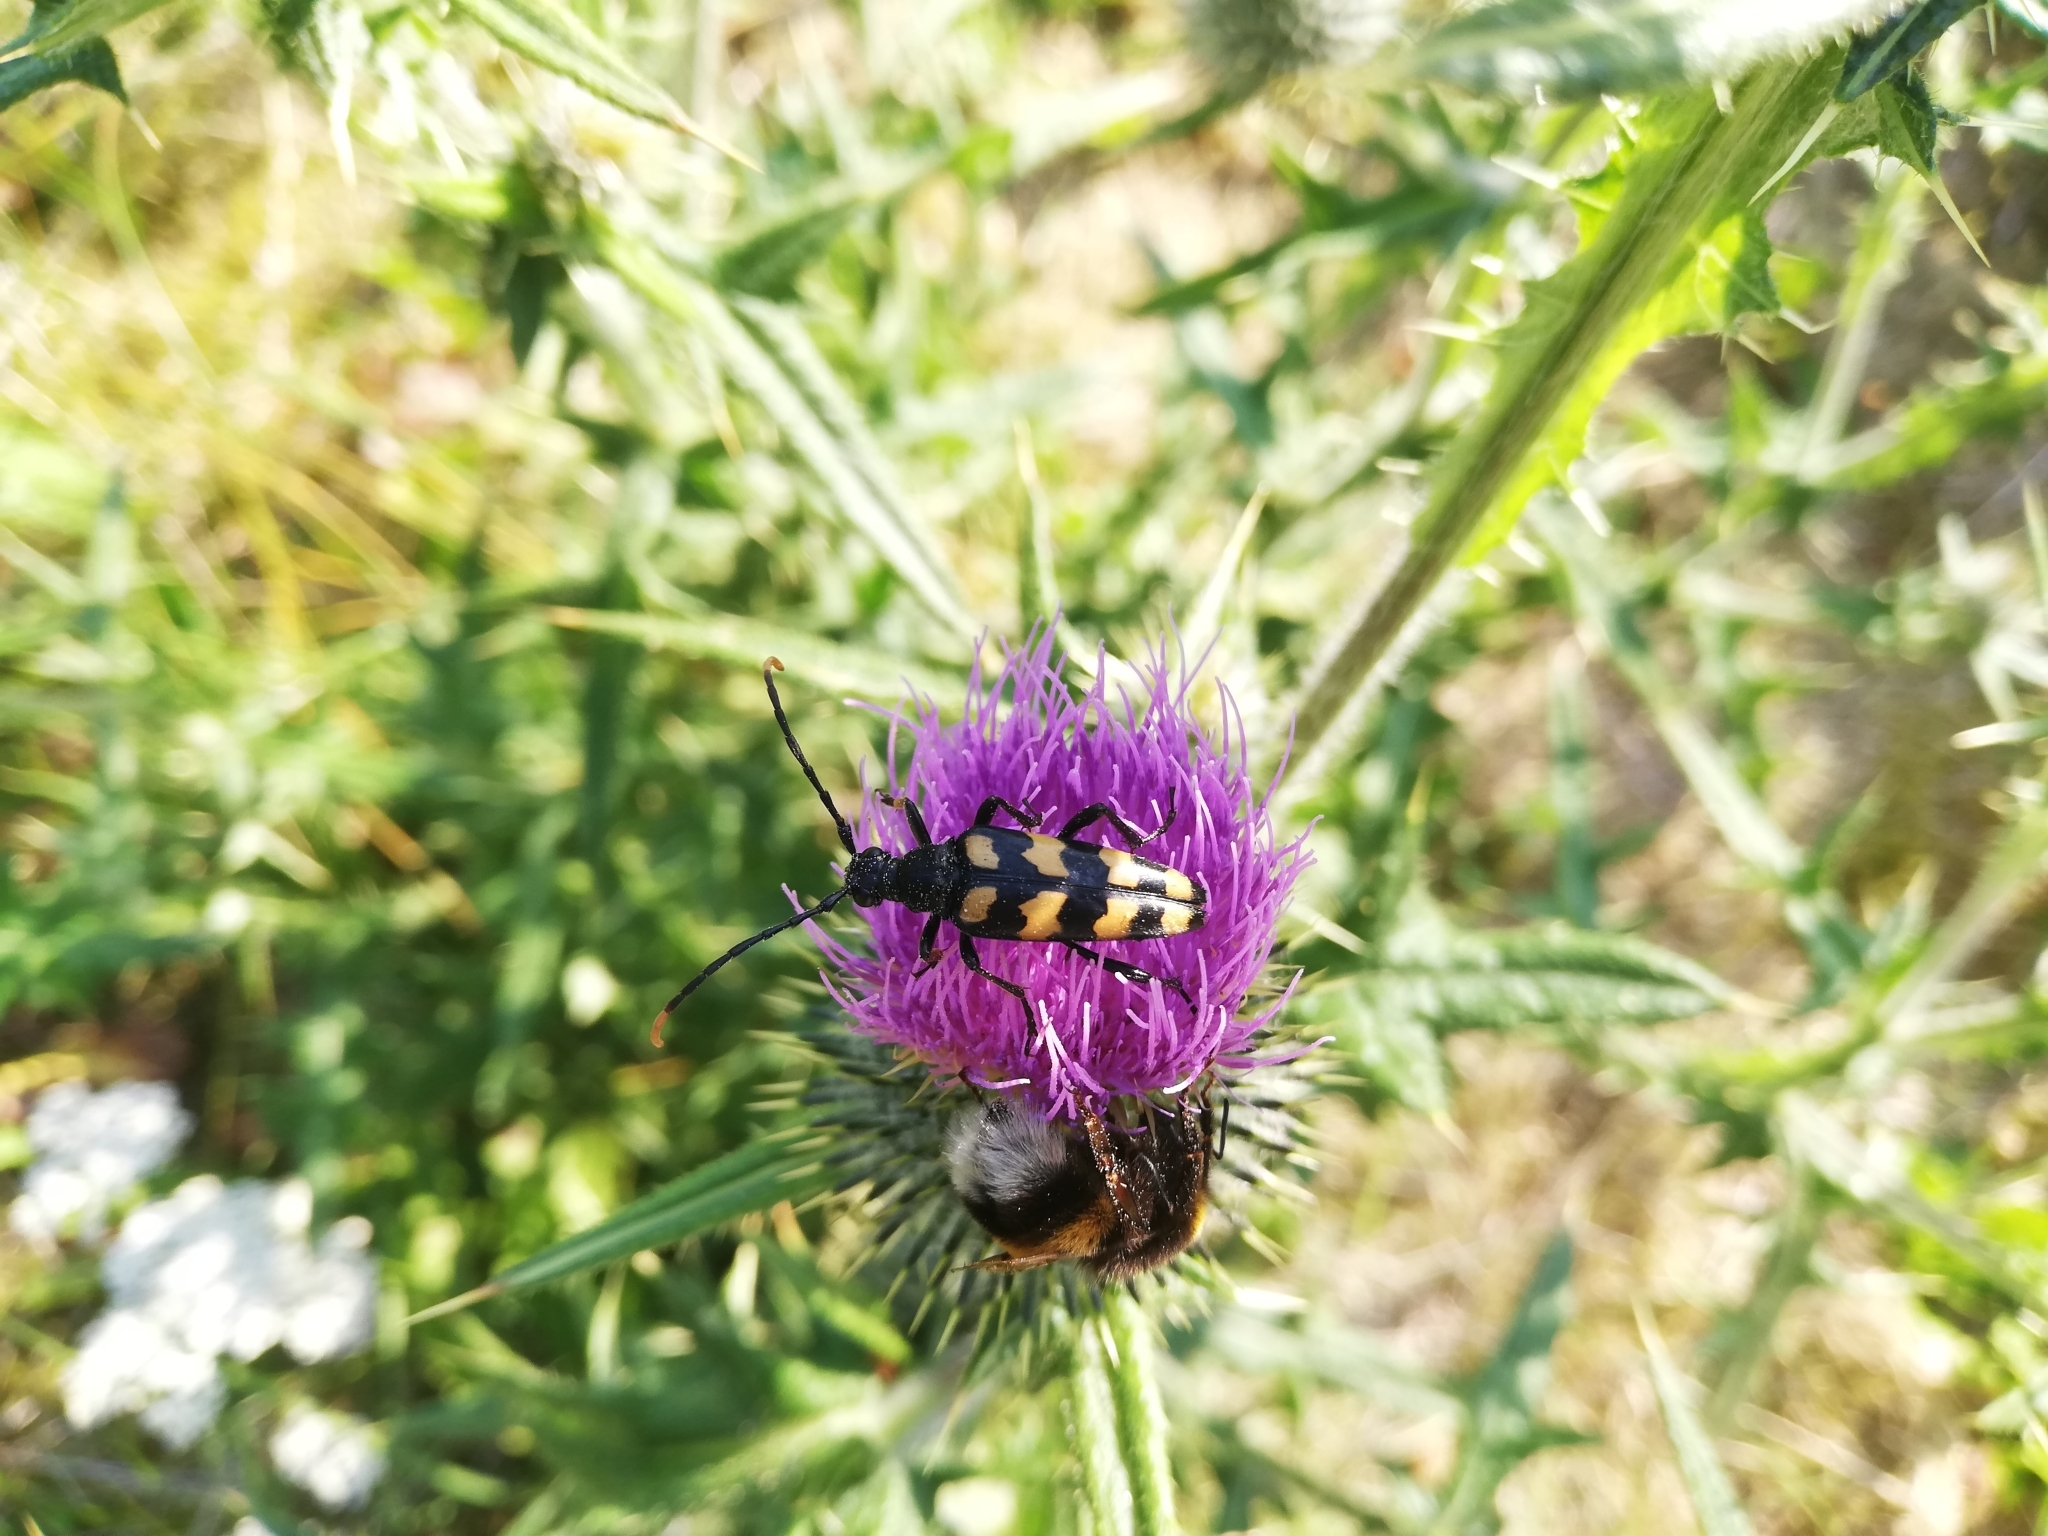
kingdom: Animalia
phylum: Arthropoda
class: Insecta
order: Coleoptera
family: Cerambycidae
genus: Leptura
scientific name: Leptura quadrifasciata
